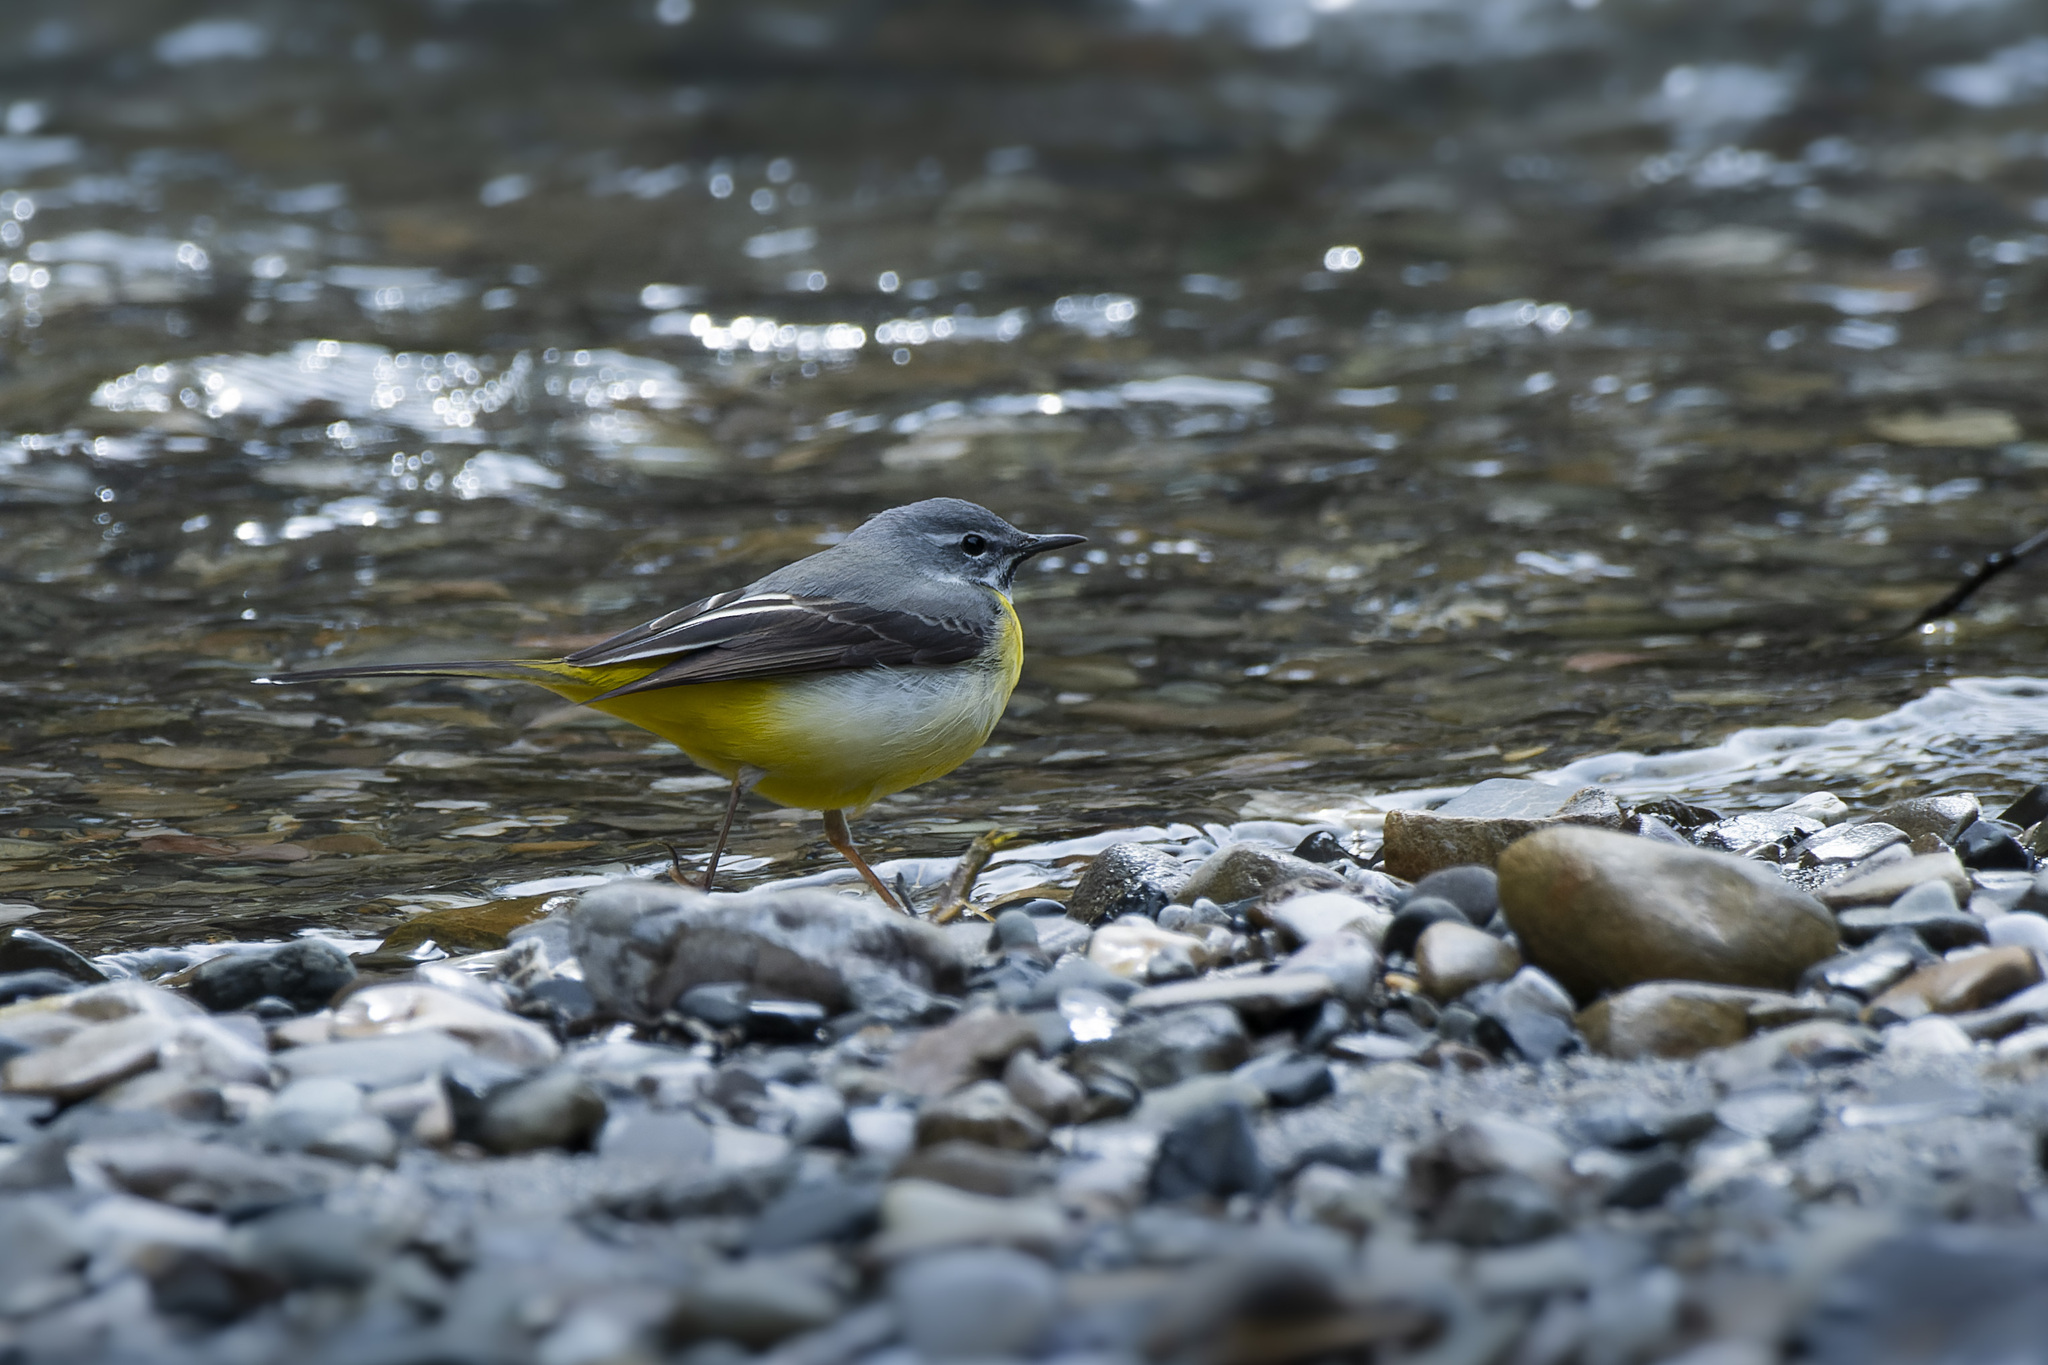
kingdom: Animalia
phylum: Chordata
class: Aves
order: Passeriformes
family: Motacillidae
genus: Motacilla
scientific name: Motacilla cinerea
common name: Grey wagtail
